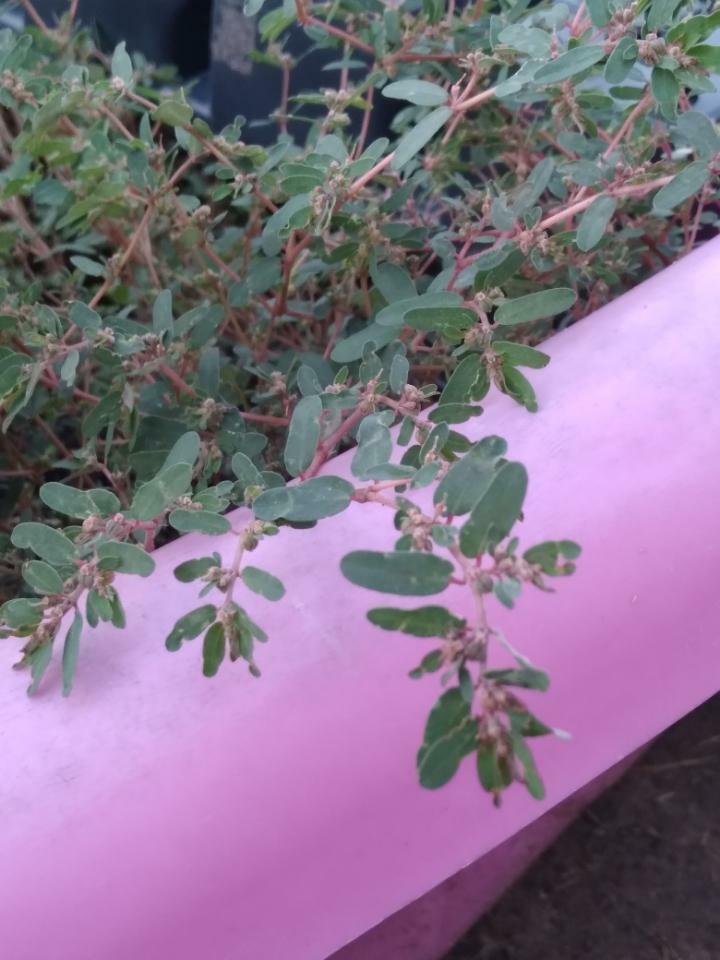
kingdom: Plantae
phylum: Tracheophyta
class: Magnoliopsida
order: Malpighiales
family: Euphorbiaceae
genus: Euphorbia
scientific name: Euphorbia maculata
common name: Spotted spurge
